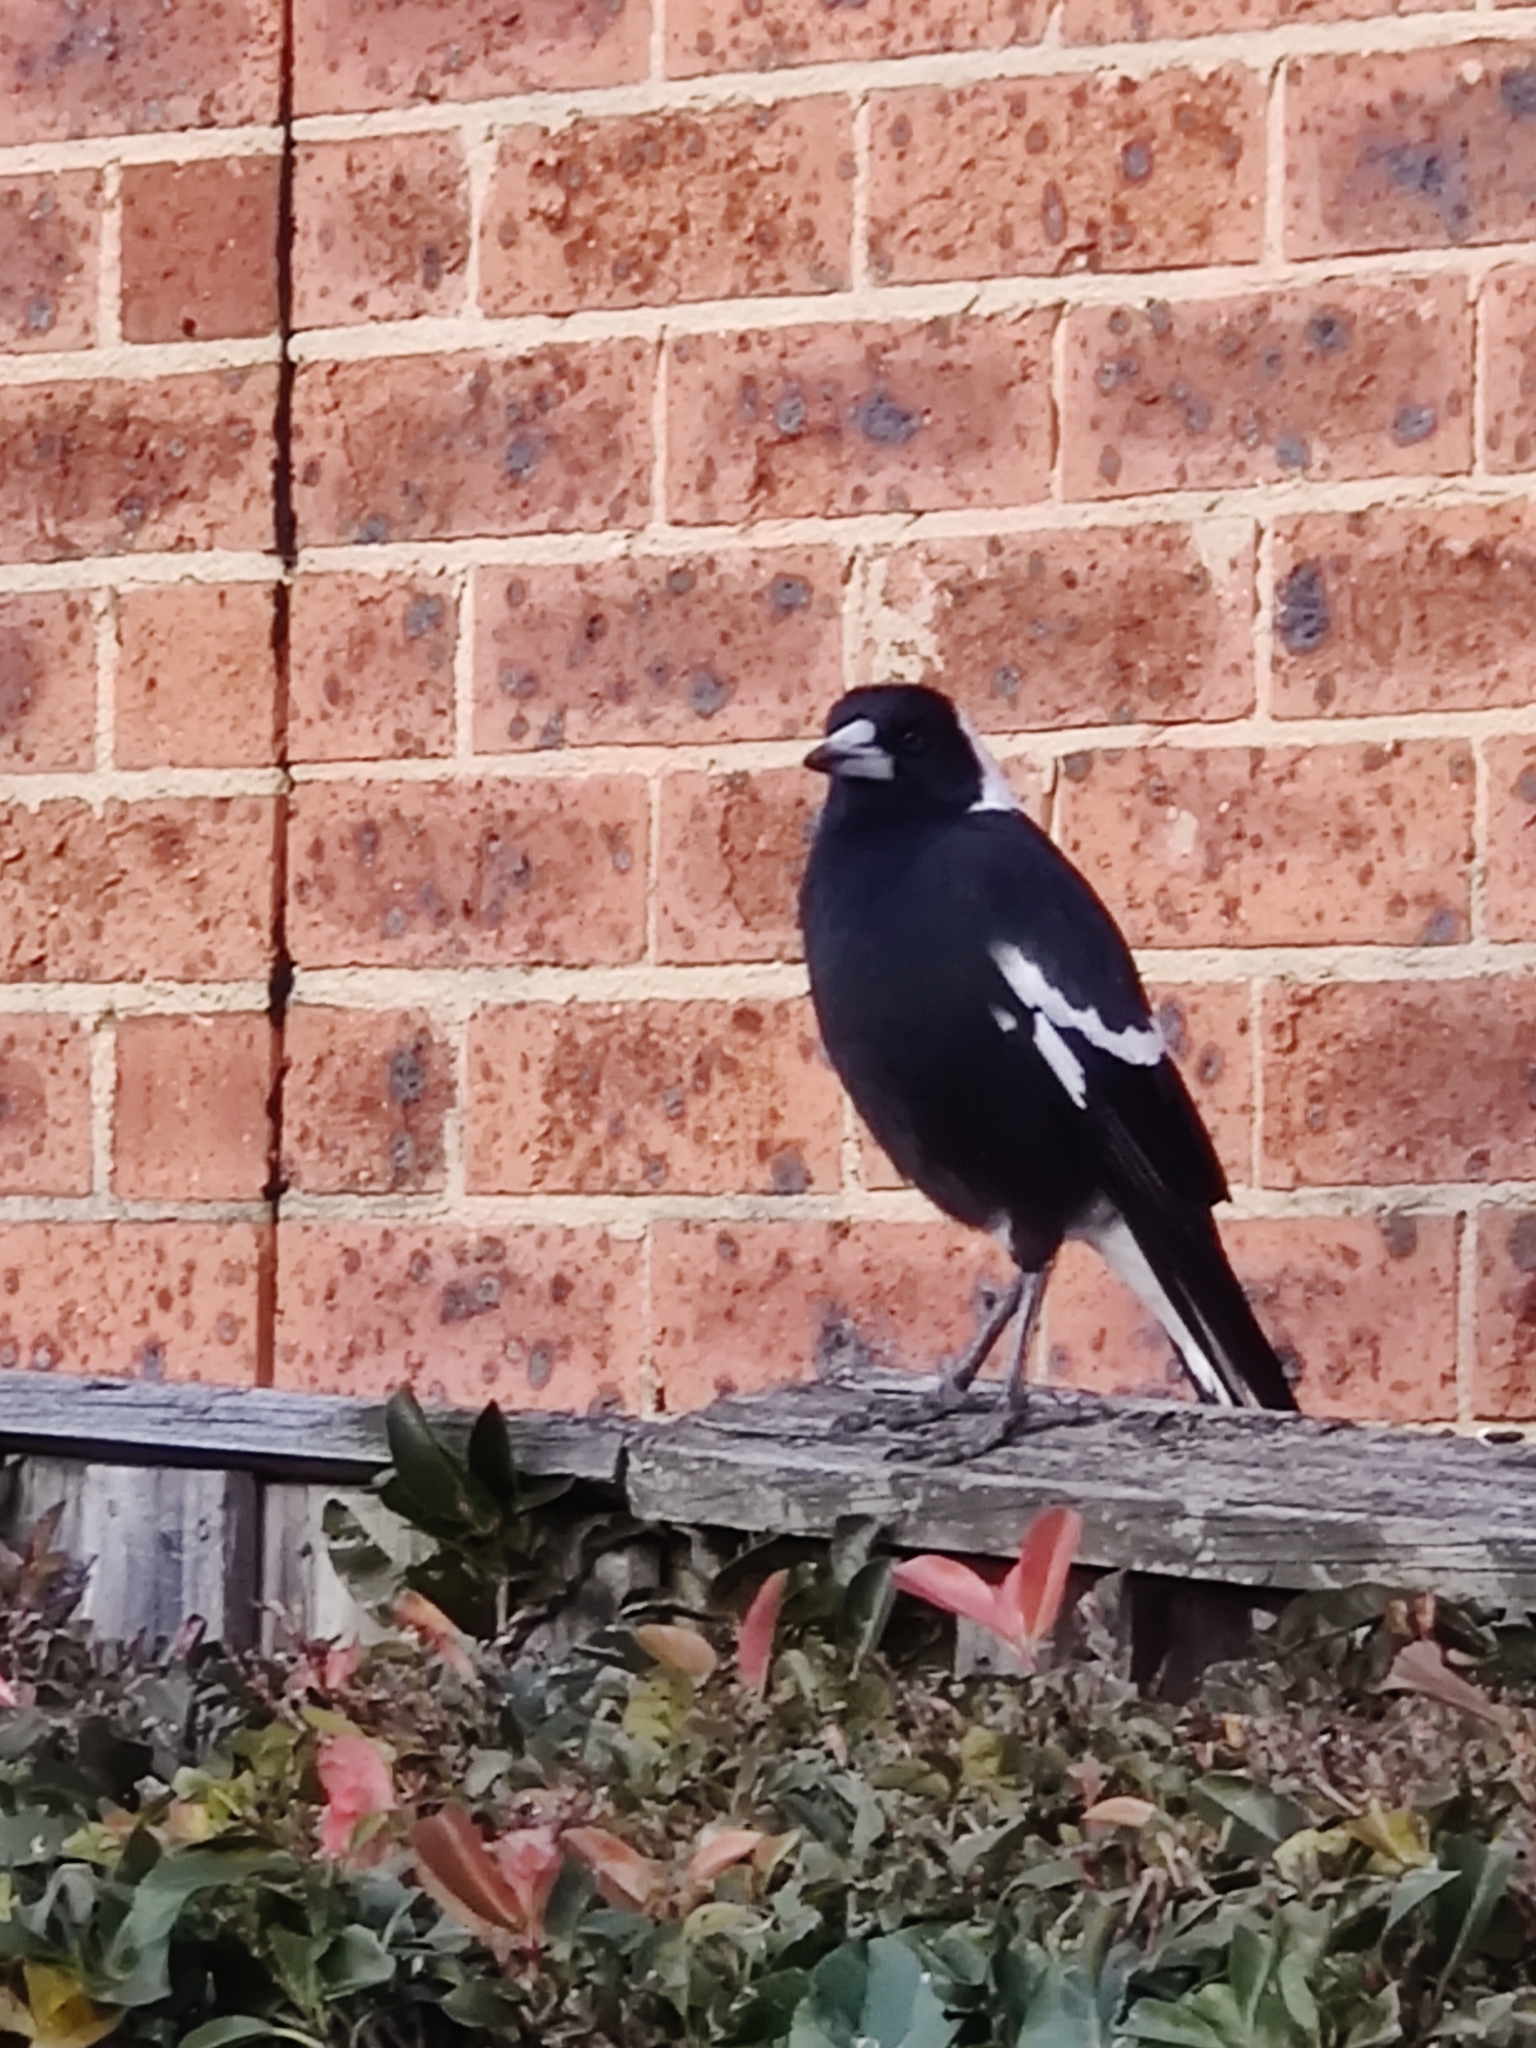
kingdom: Animalia
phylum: Chordata
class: Aves
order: Passeriformes
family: Cracticidae
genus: Gymnorhina
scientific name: Gymnorhina tibicen
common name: Australian magpie
